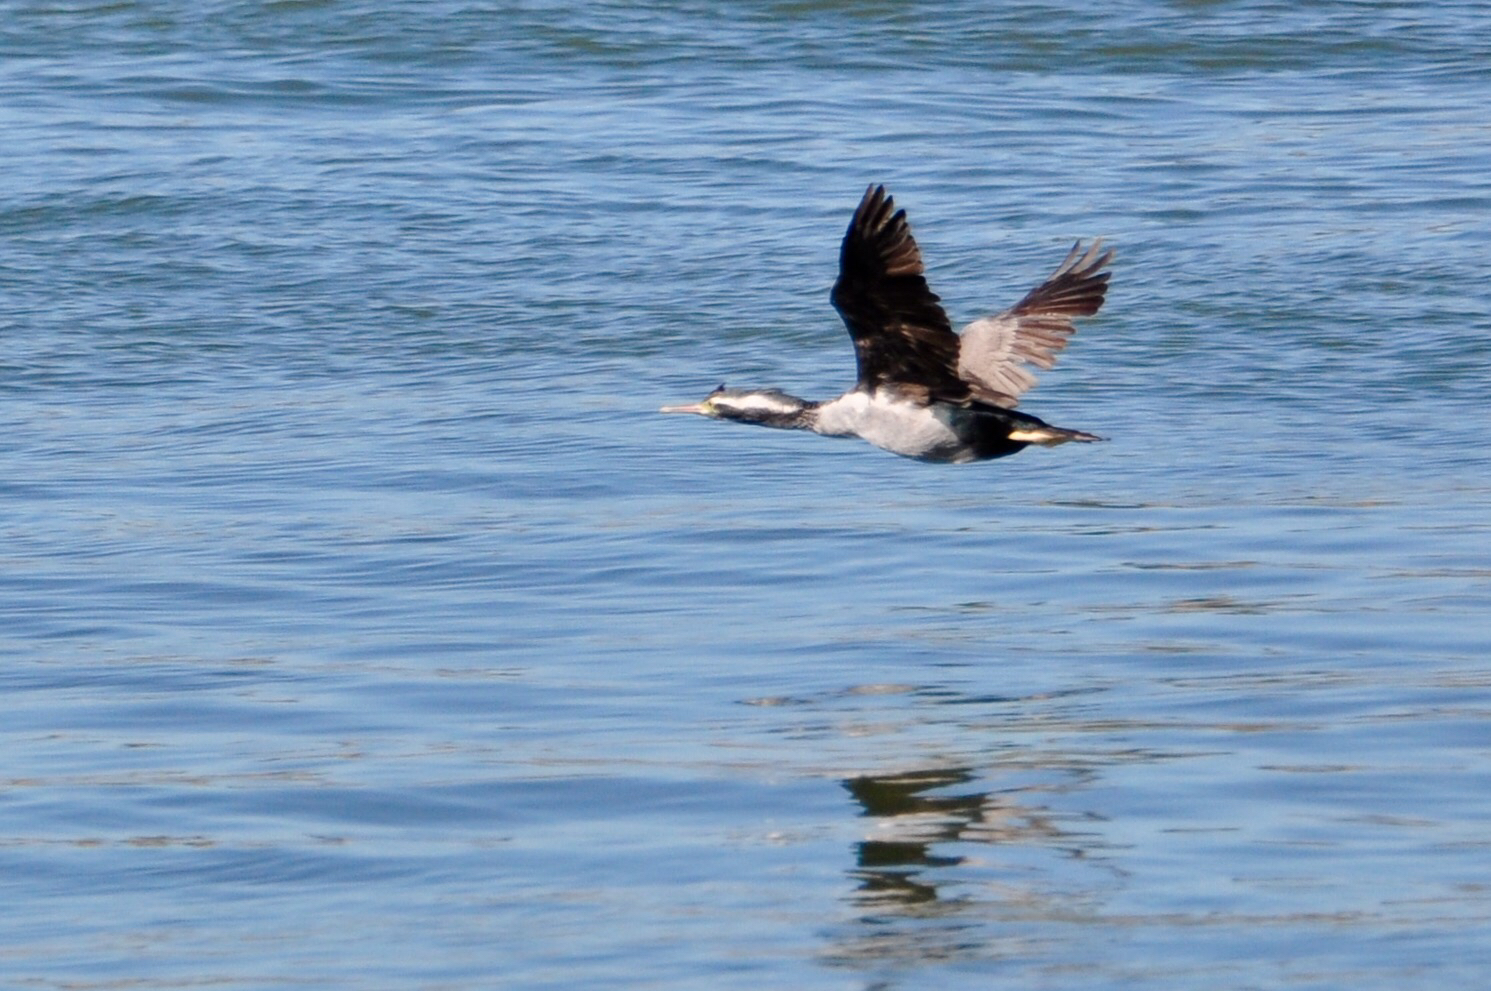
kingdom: Animalia
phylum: Chordata
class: Aves
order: Suliformes
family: Phalacrocoracidae
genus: Phalacrocorax
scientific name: Phalacrocorax punctatus
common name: Spotted shag
